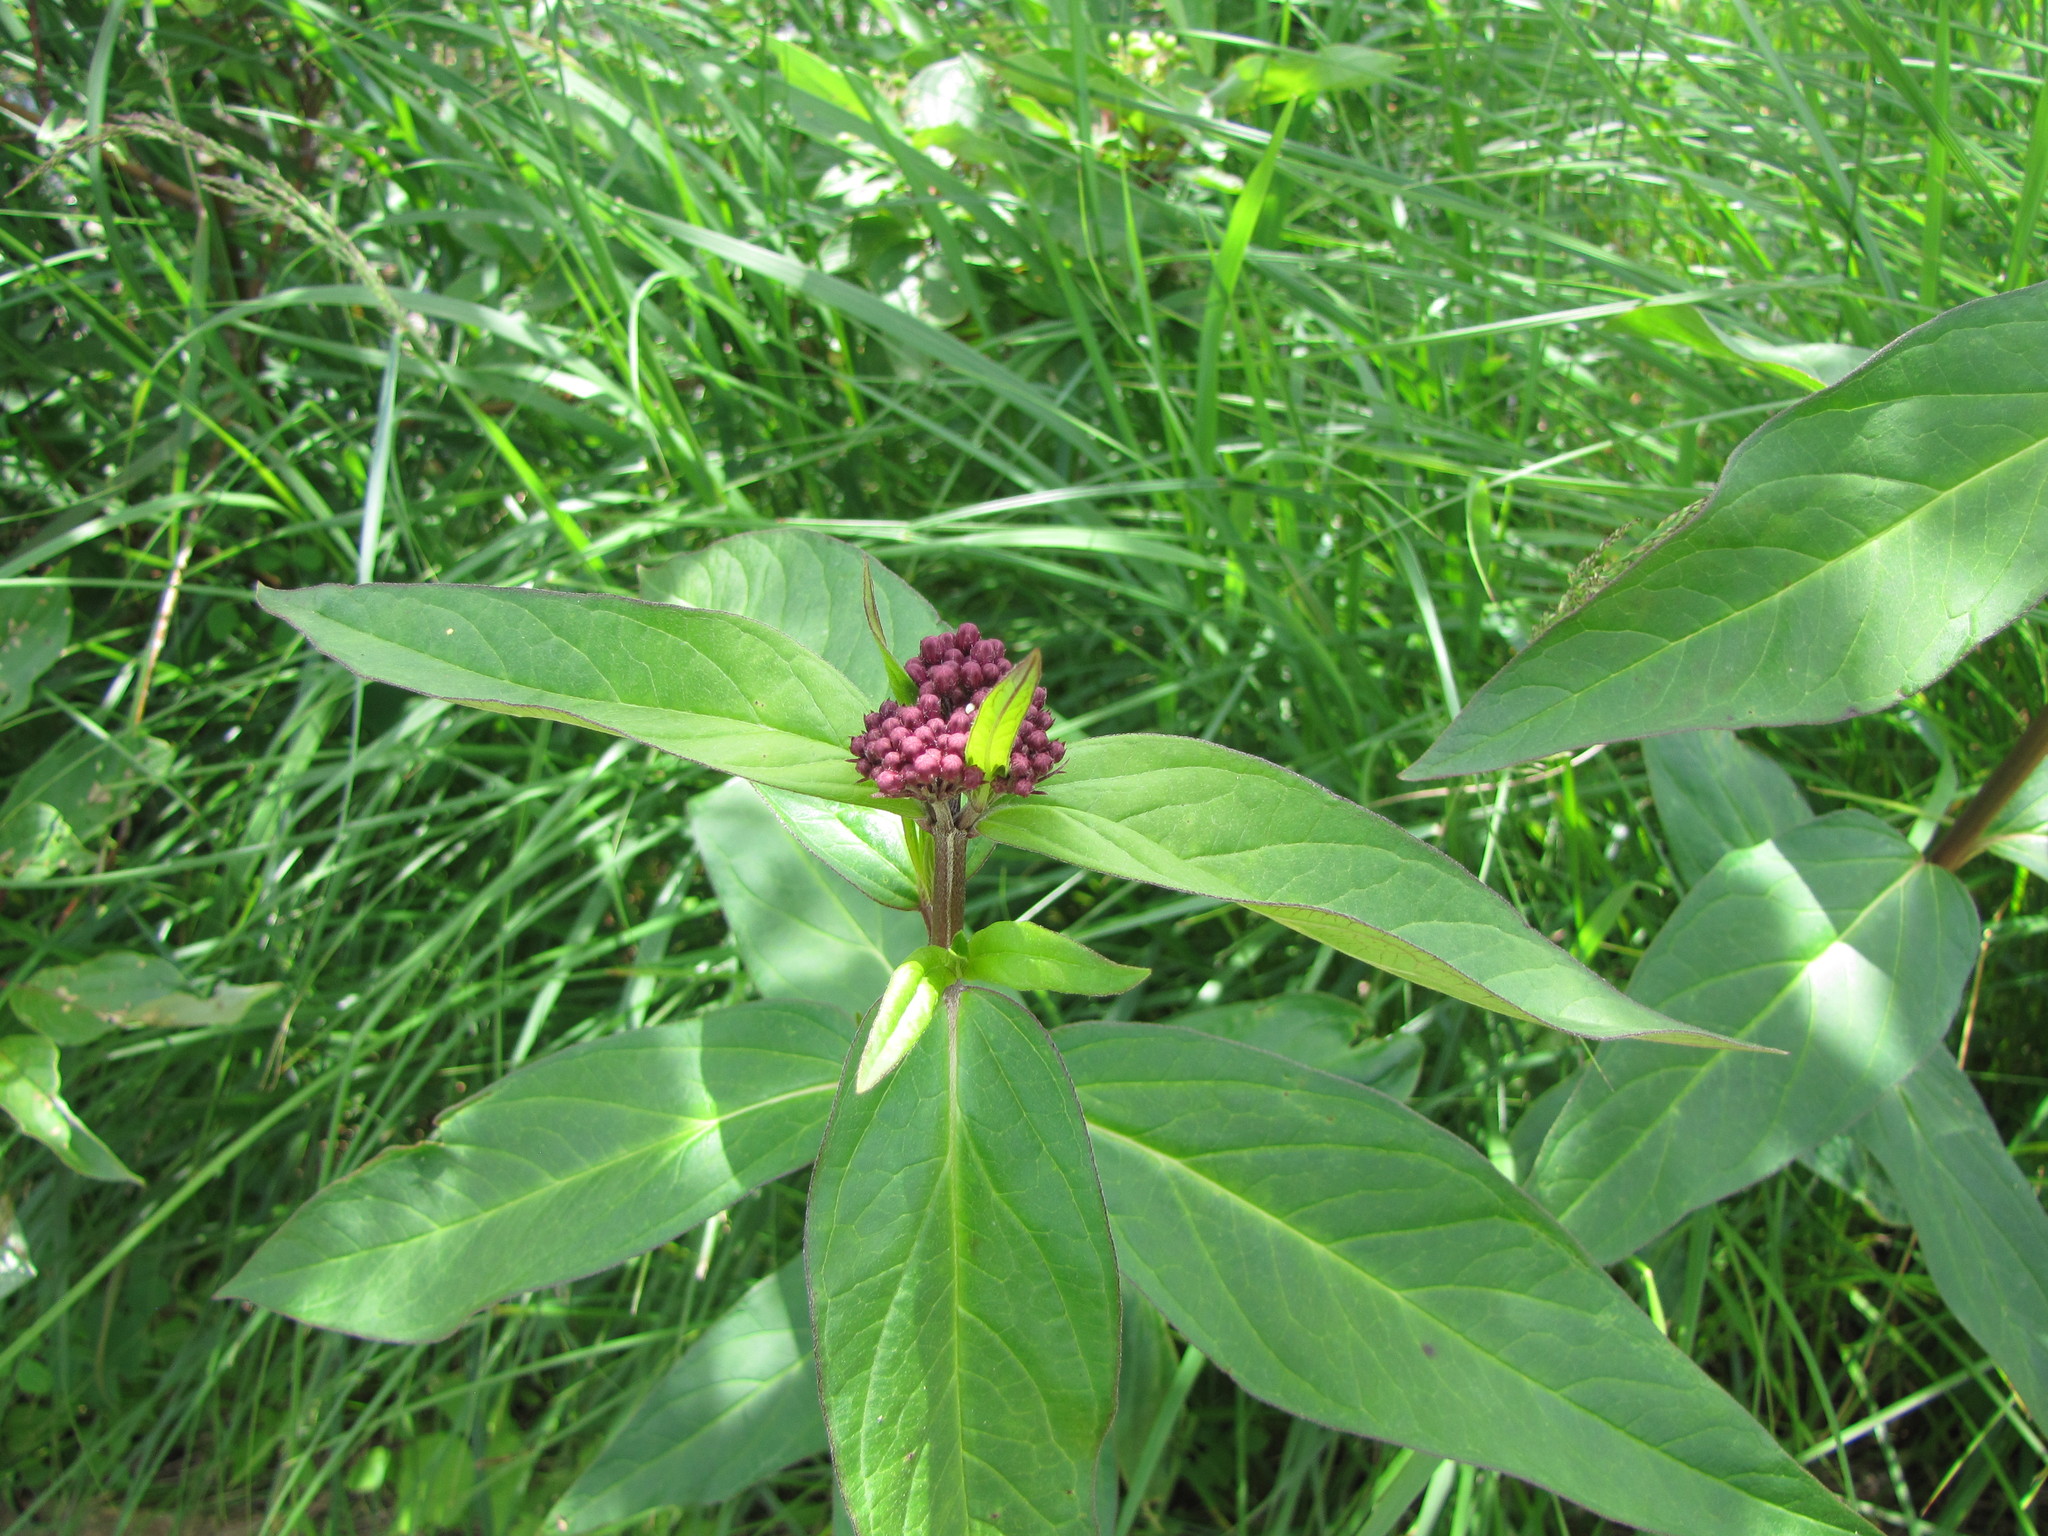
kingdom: Plantae
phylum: Tracheophyta
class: Magnoliopsida
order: Gentianales
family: Apocynaceae
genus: Asclepias
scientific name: Asclepias incarnata
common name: Swamp milkweed
